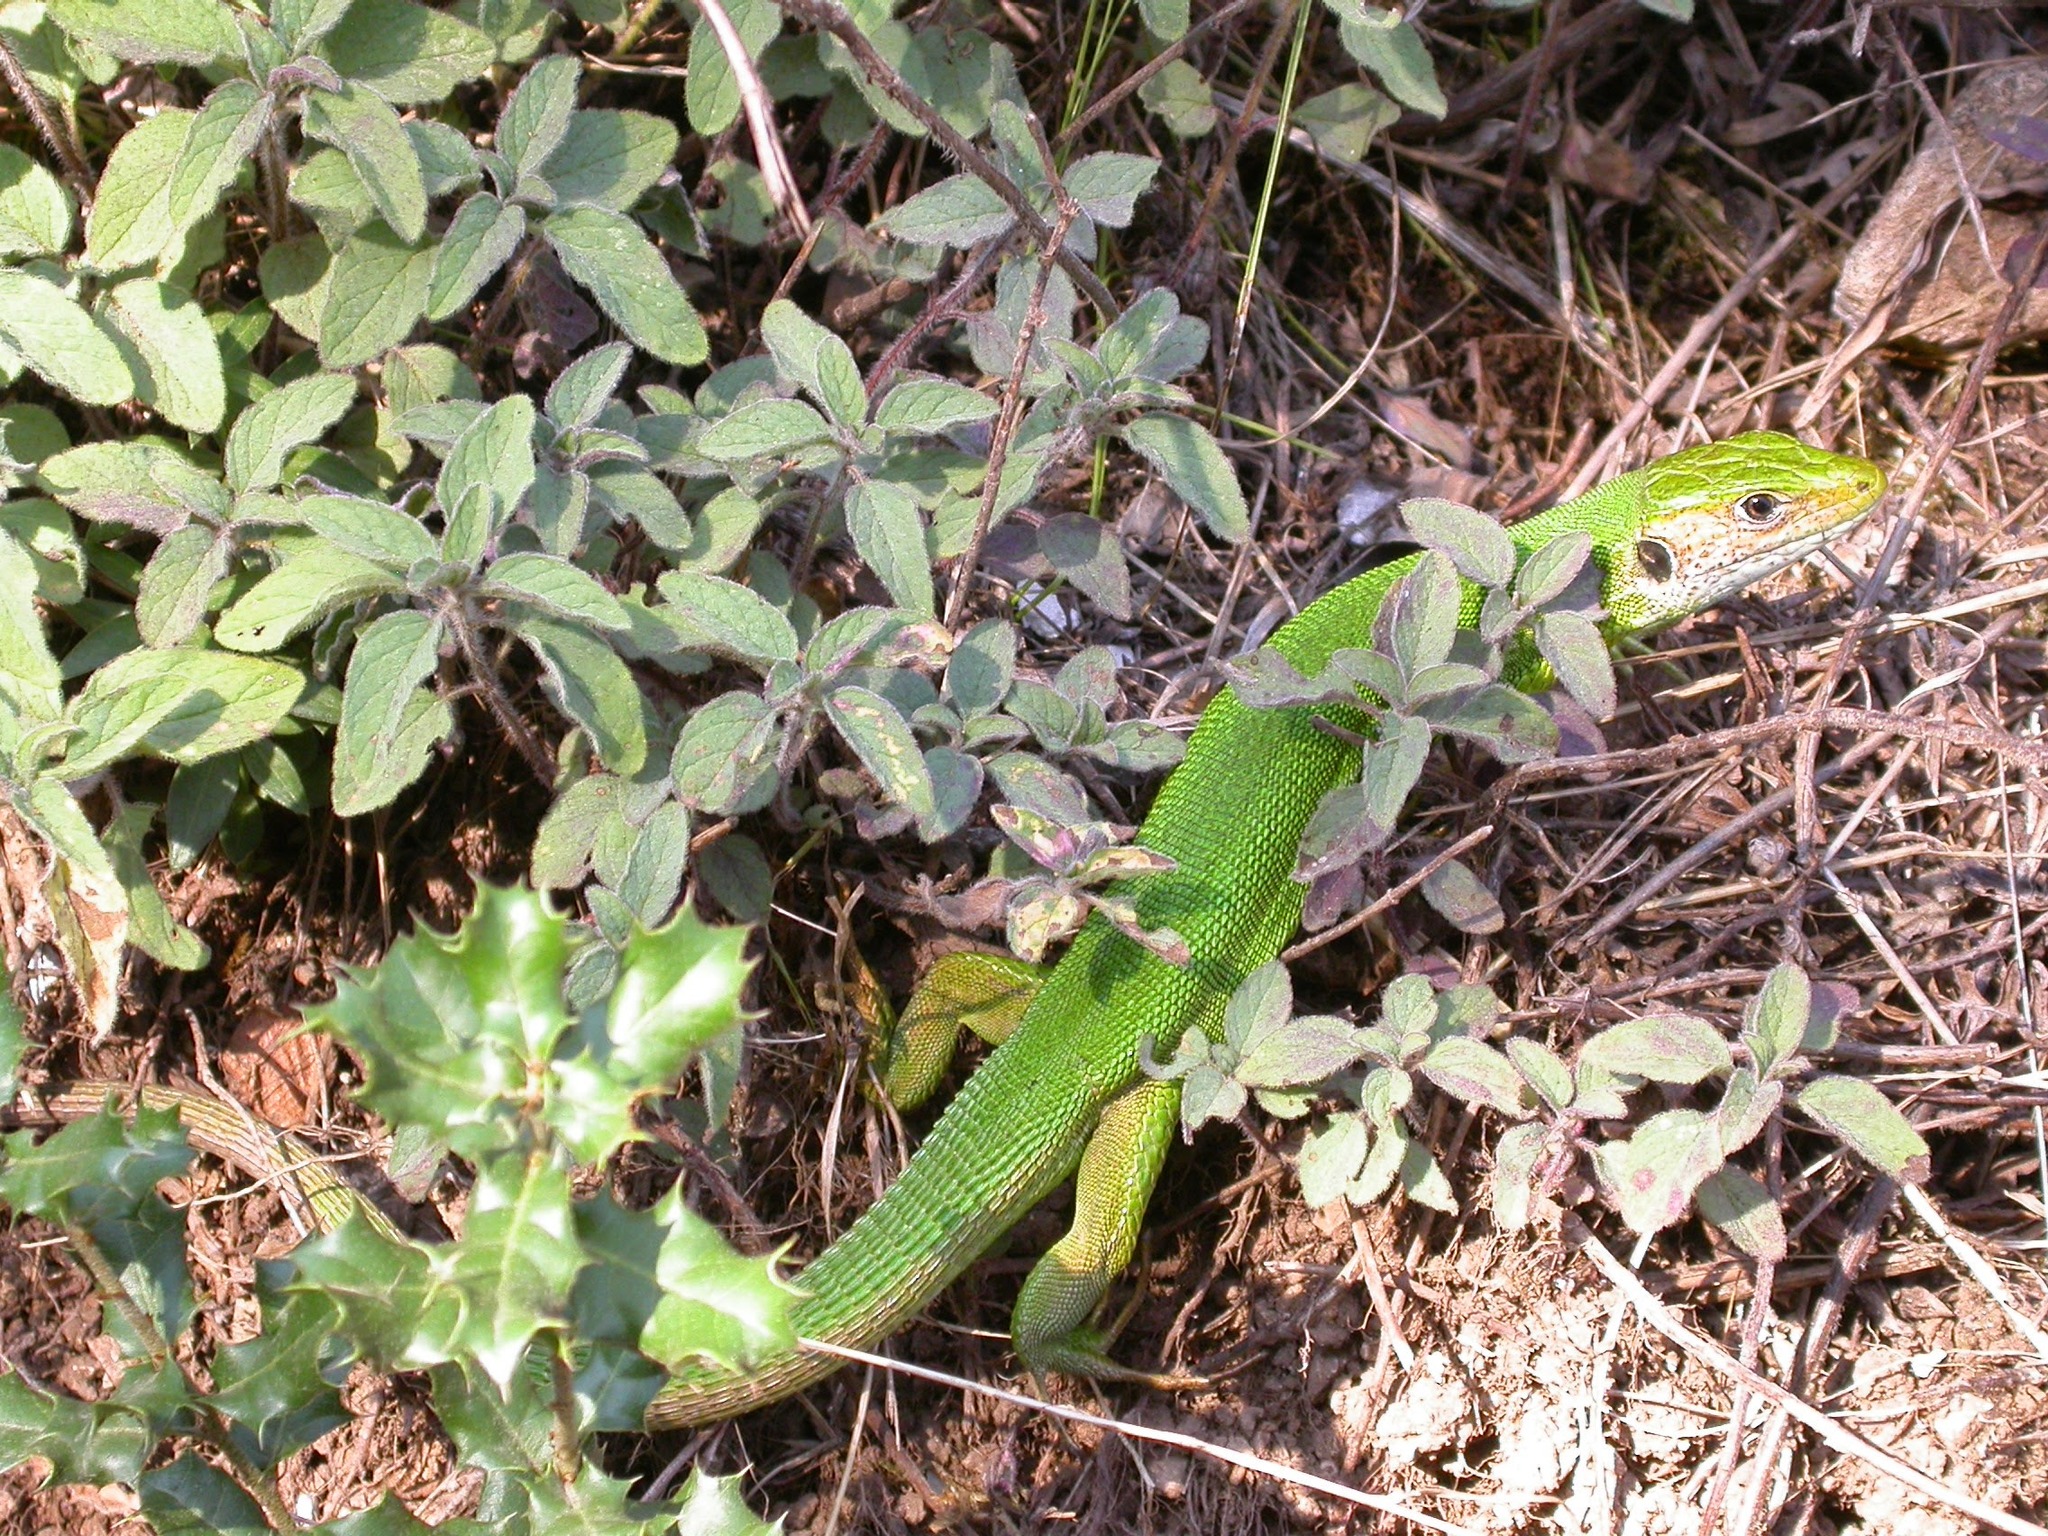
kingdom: Animalia
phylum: Chordata
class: Squamata
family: Lacertidae
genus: Lacerta
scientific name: Lacerta viridis
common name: European green lizard
